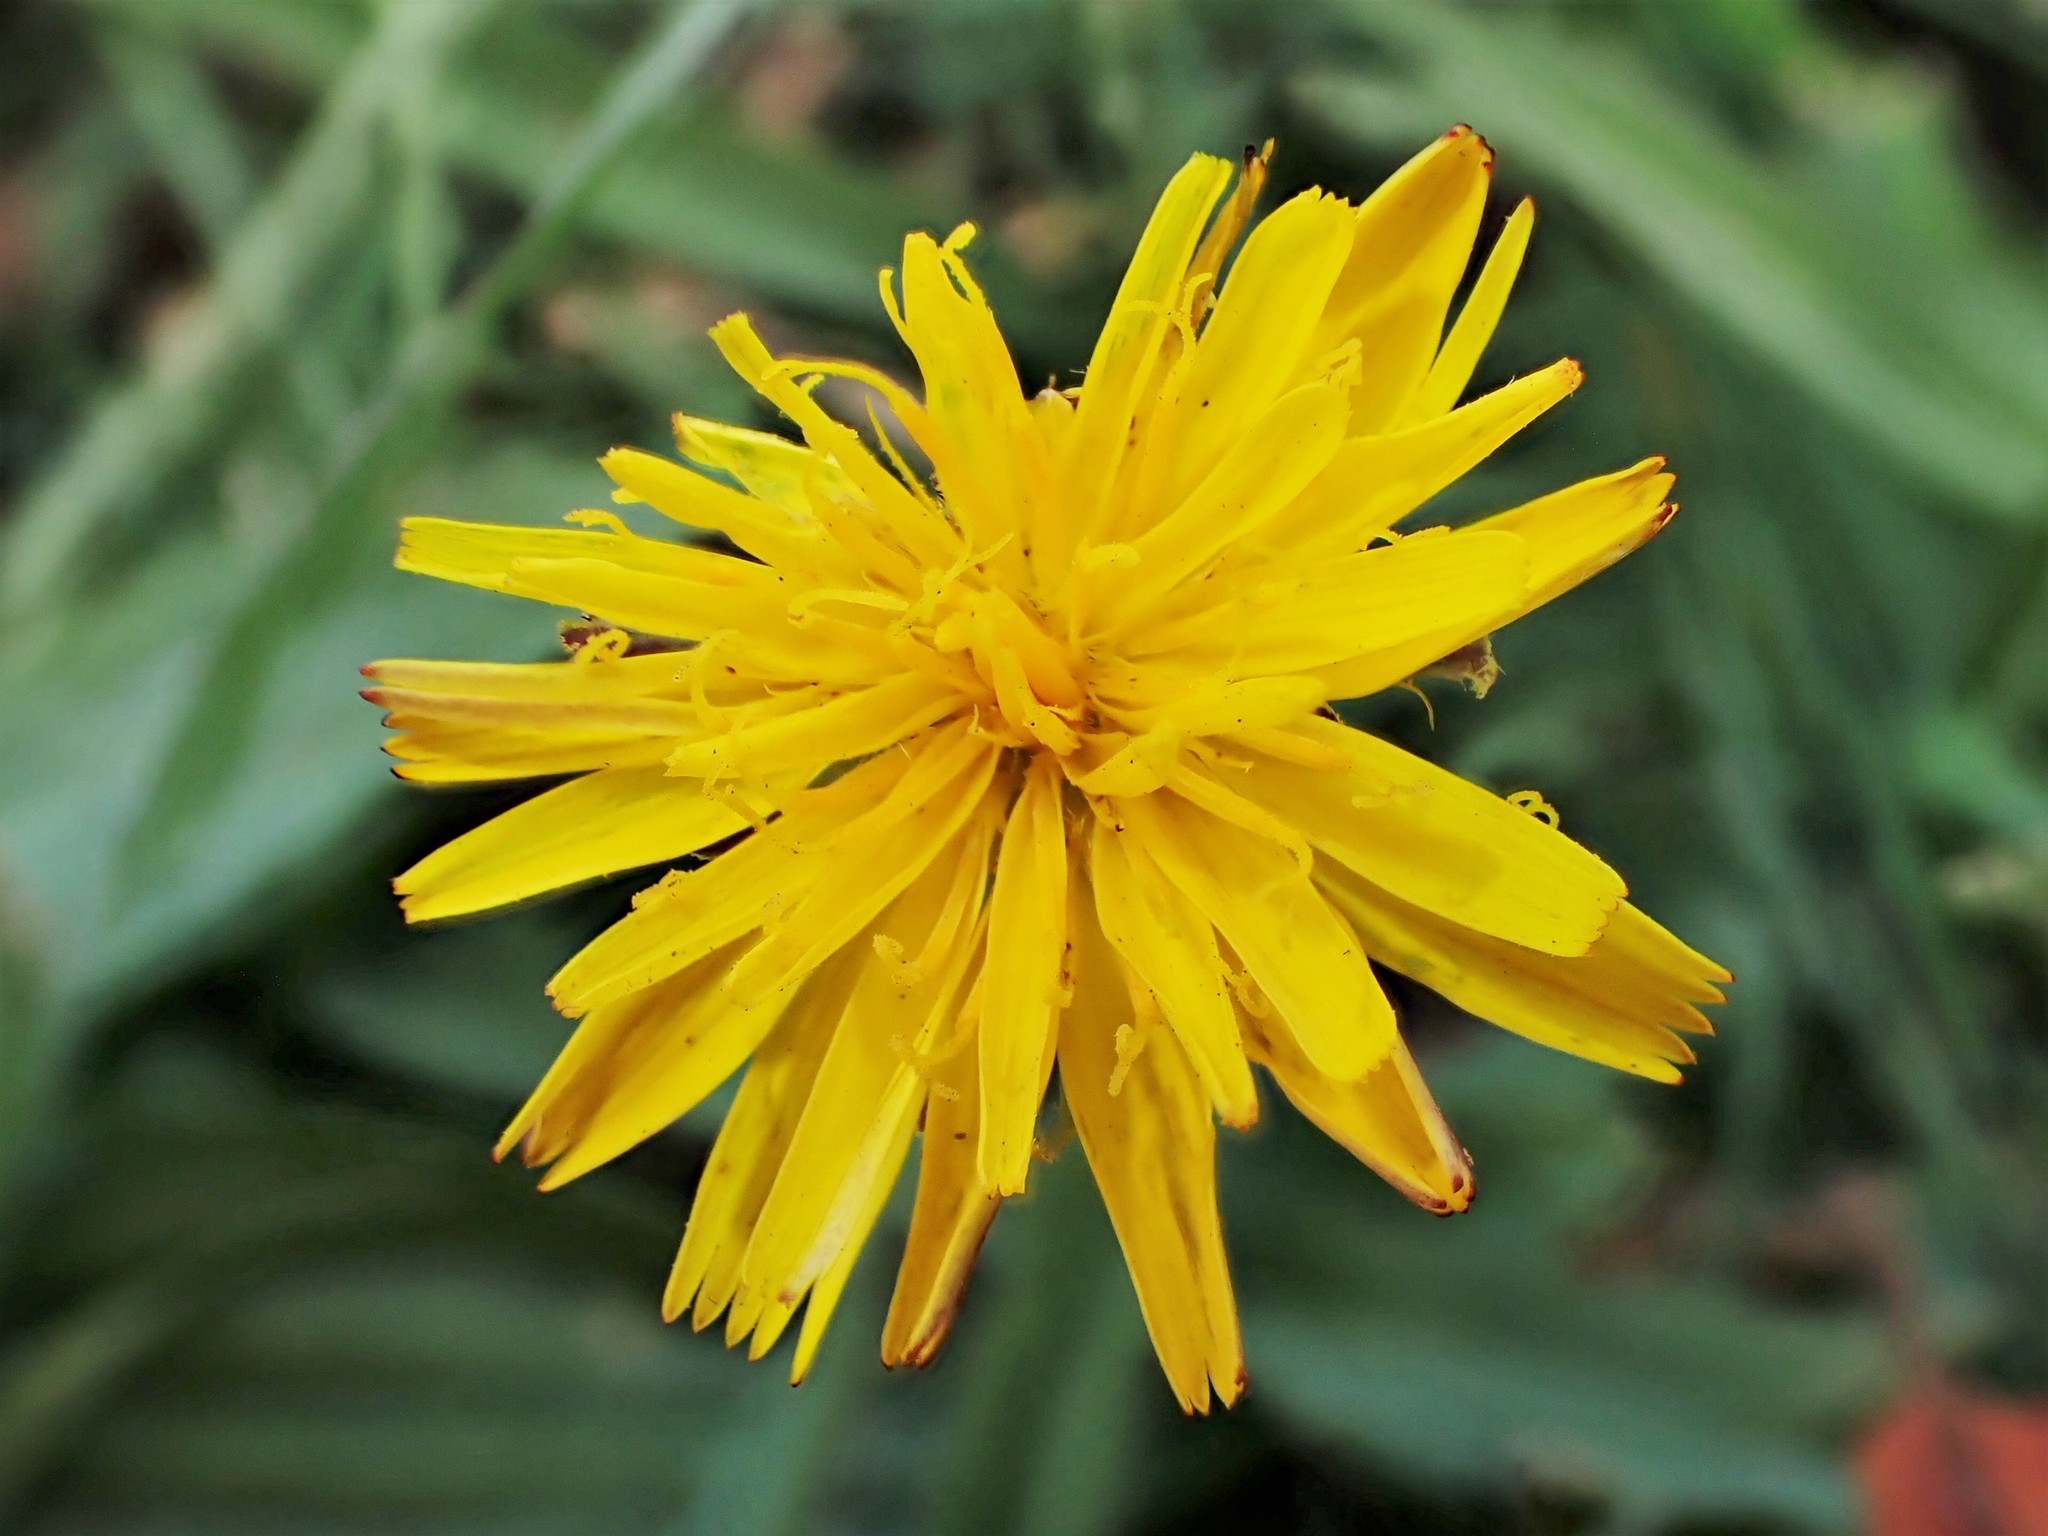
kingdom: Plantae
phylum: Tracheophyta
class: Magnoliopsida
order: Asterales
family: Asteraceae
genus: Hypochaeris
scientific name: Hypochaeris radicata
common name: Flatweed
